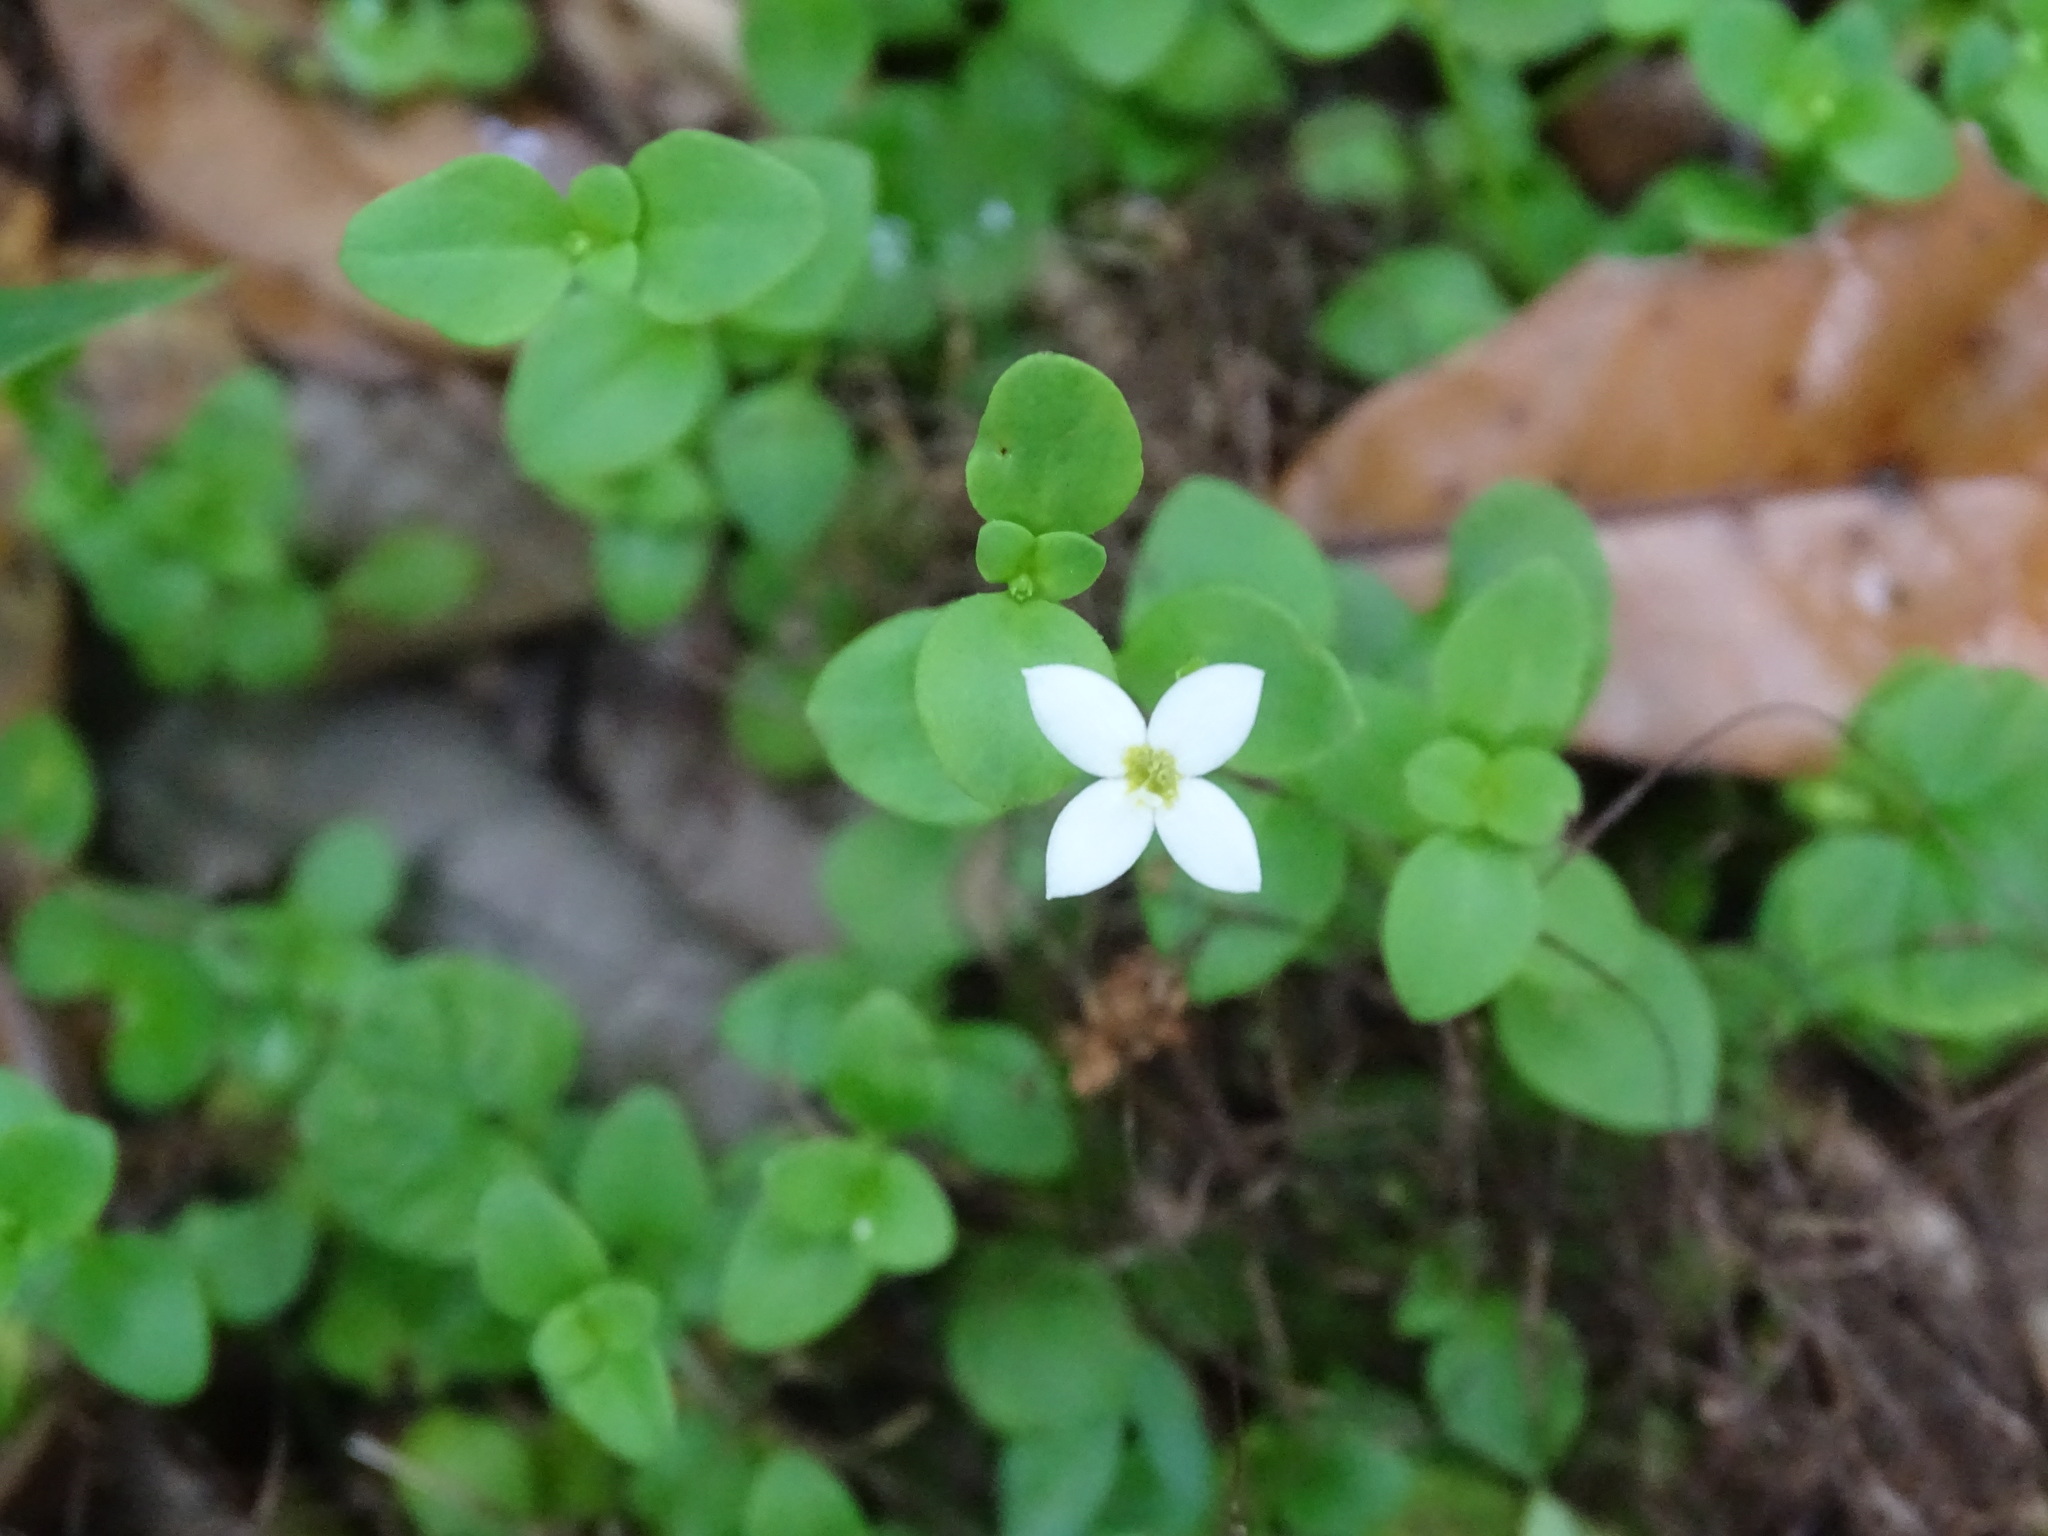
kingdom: Plantae
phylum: Tracheophyta
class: Magnoliopsida
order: Gentianales
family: Rubiaceae
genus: Houstonia
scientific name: Houstonia procumbens
